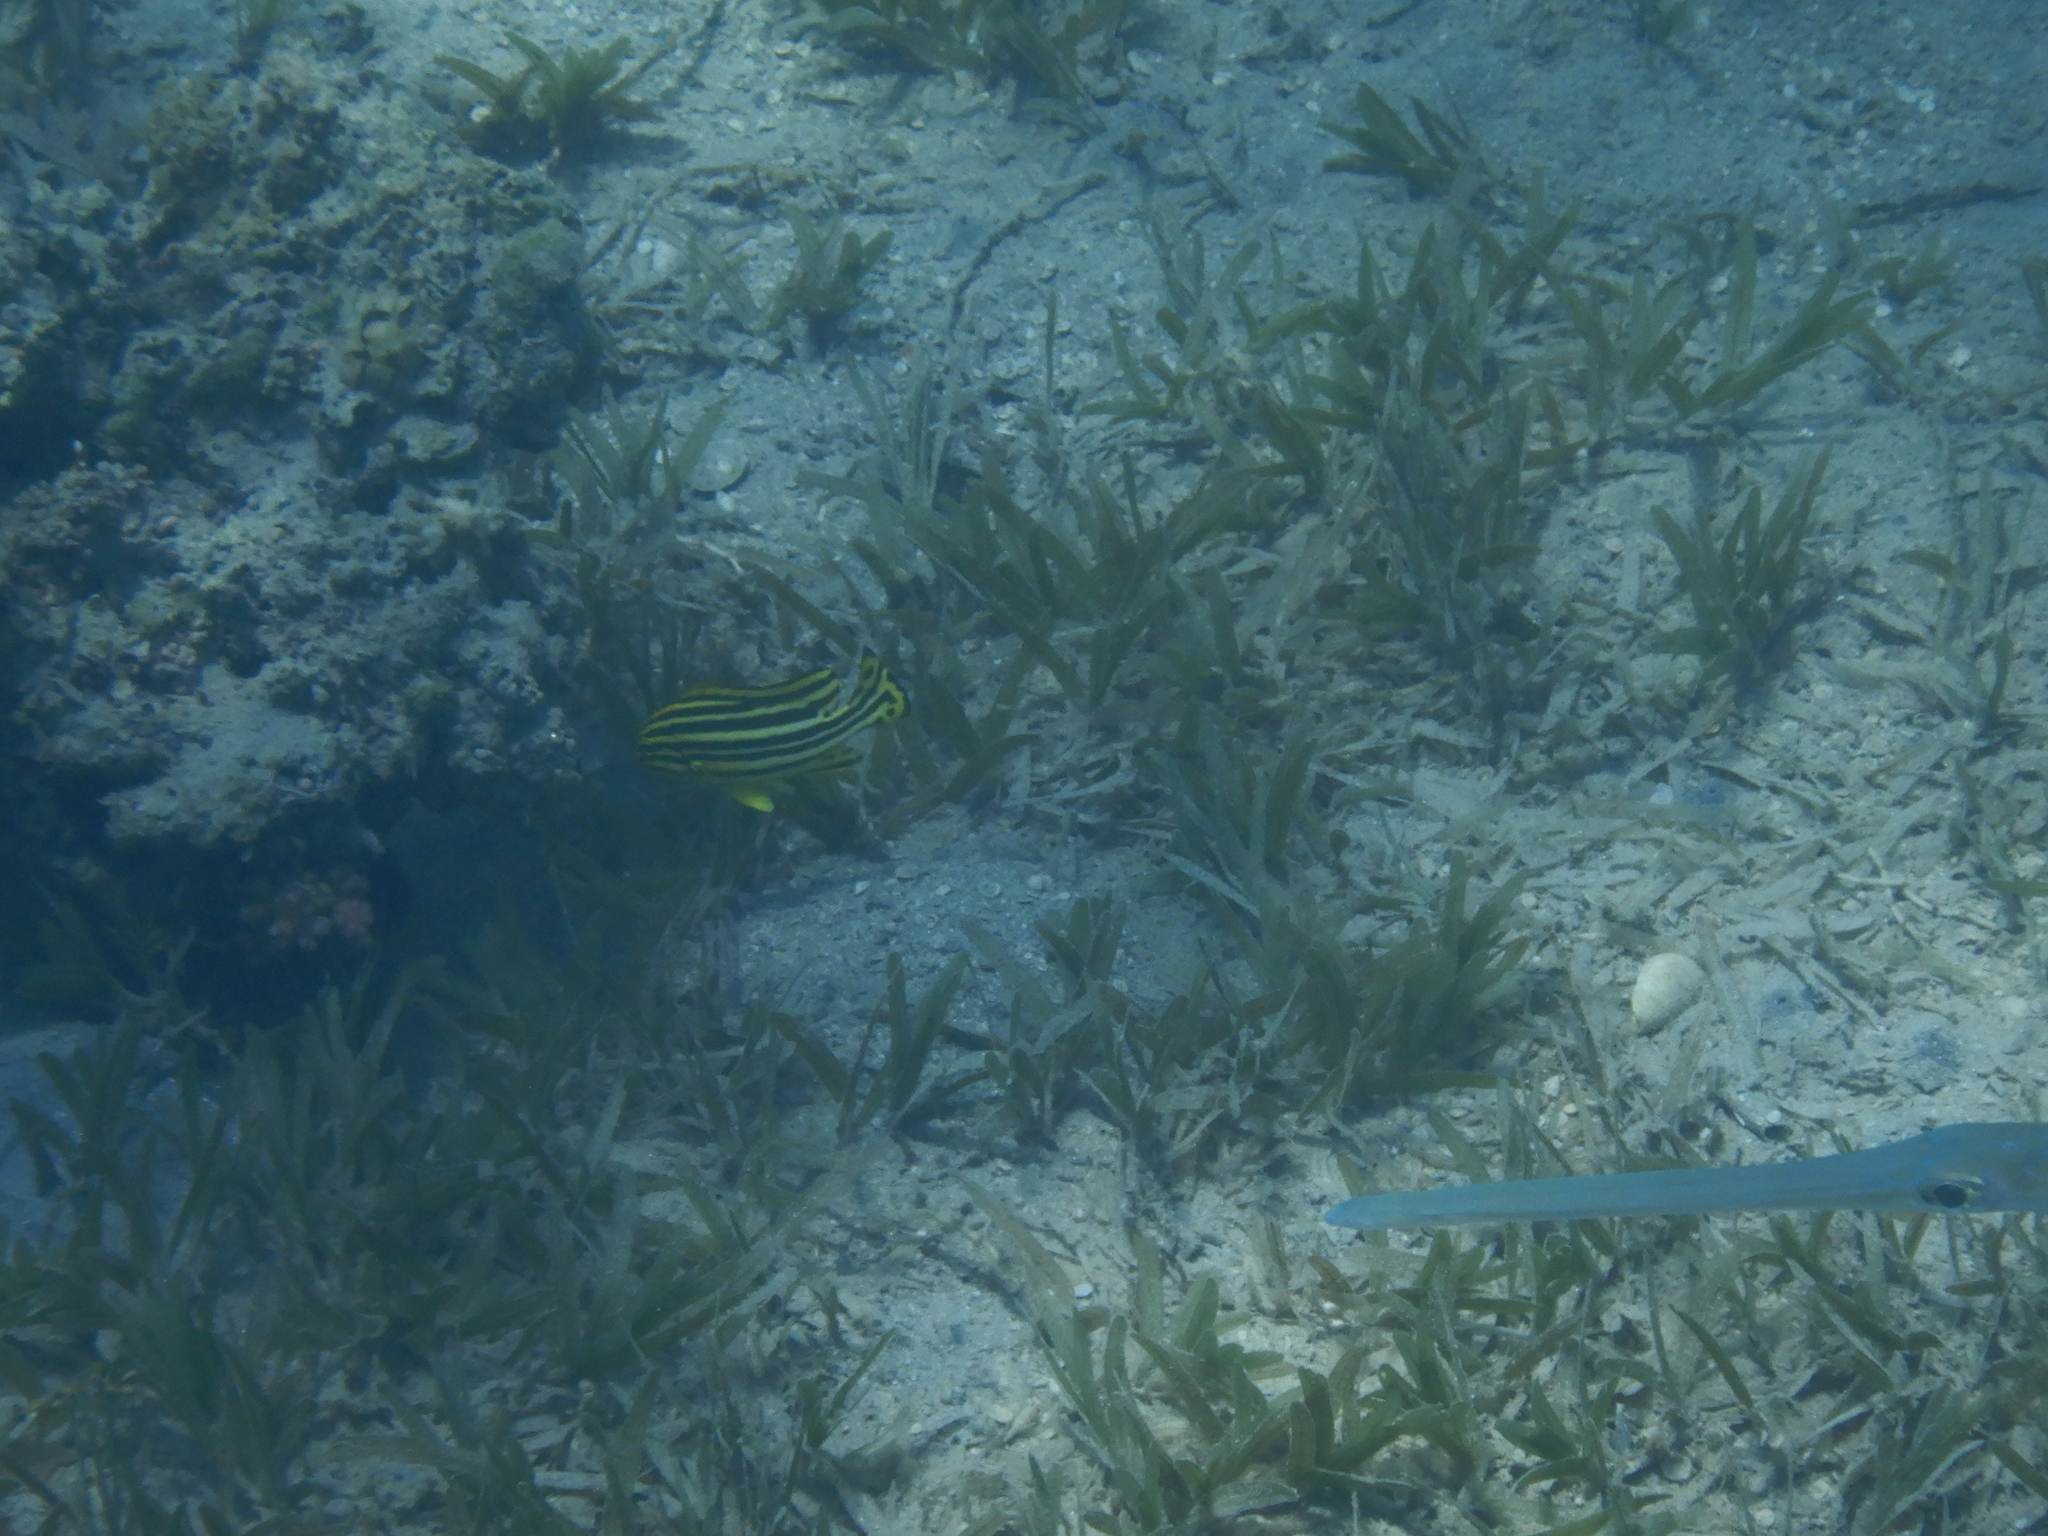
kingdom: Animalia
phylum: Chordata
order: Perciformes
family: Haemulidae
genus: Plectorhinchus
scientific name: Plectorhinchus gaterinus
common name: Blackspotted rubberlip
